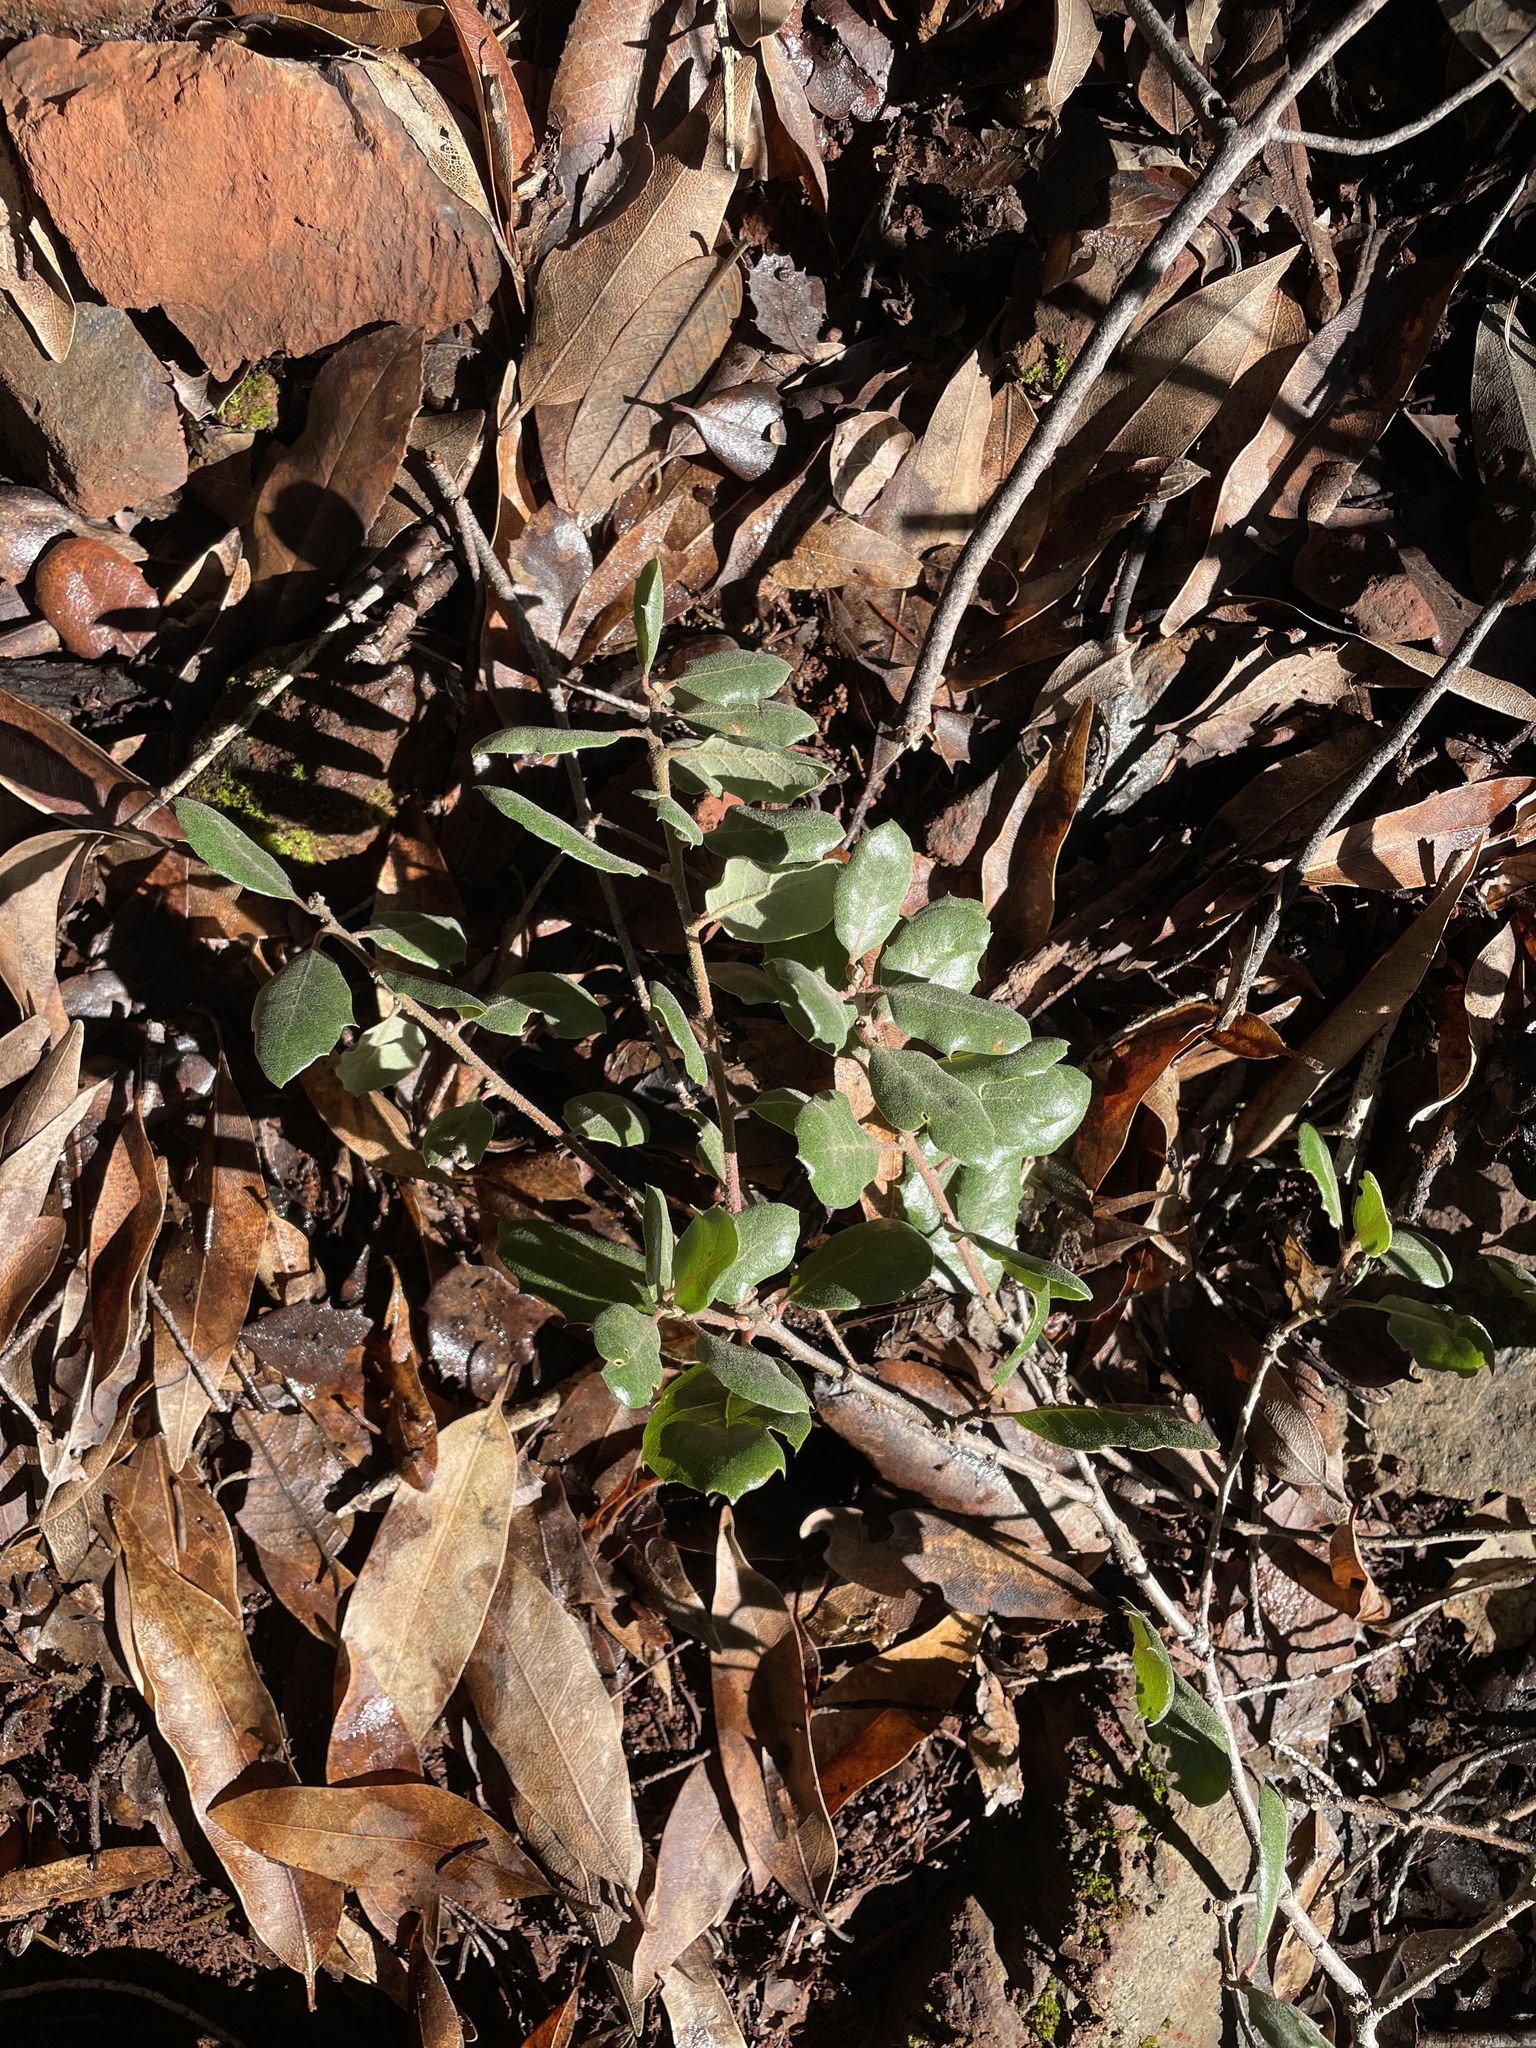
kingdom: Plantae
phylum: Tracheophyta
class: Magnoliopsida
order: Fagales
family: Fagaceae
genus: Quercus
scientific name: Quercus durata
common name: Leather oak
